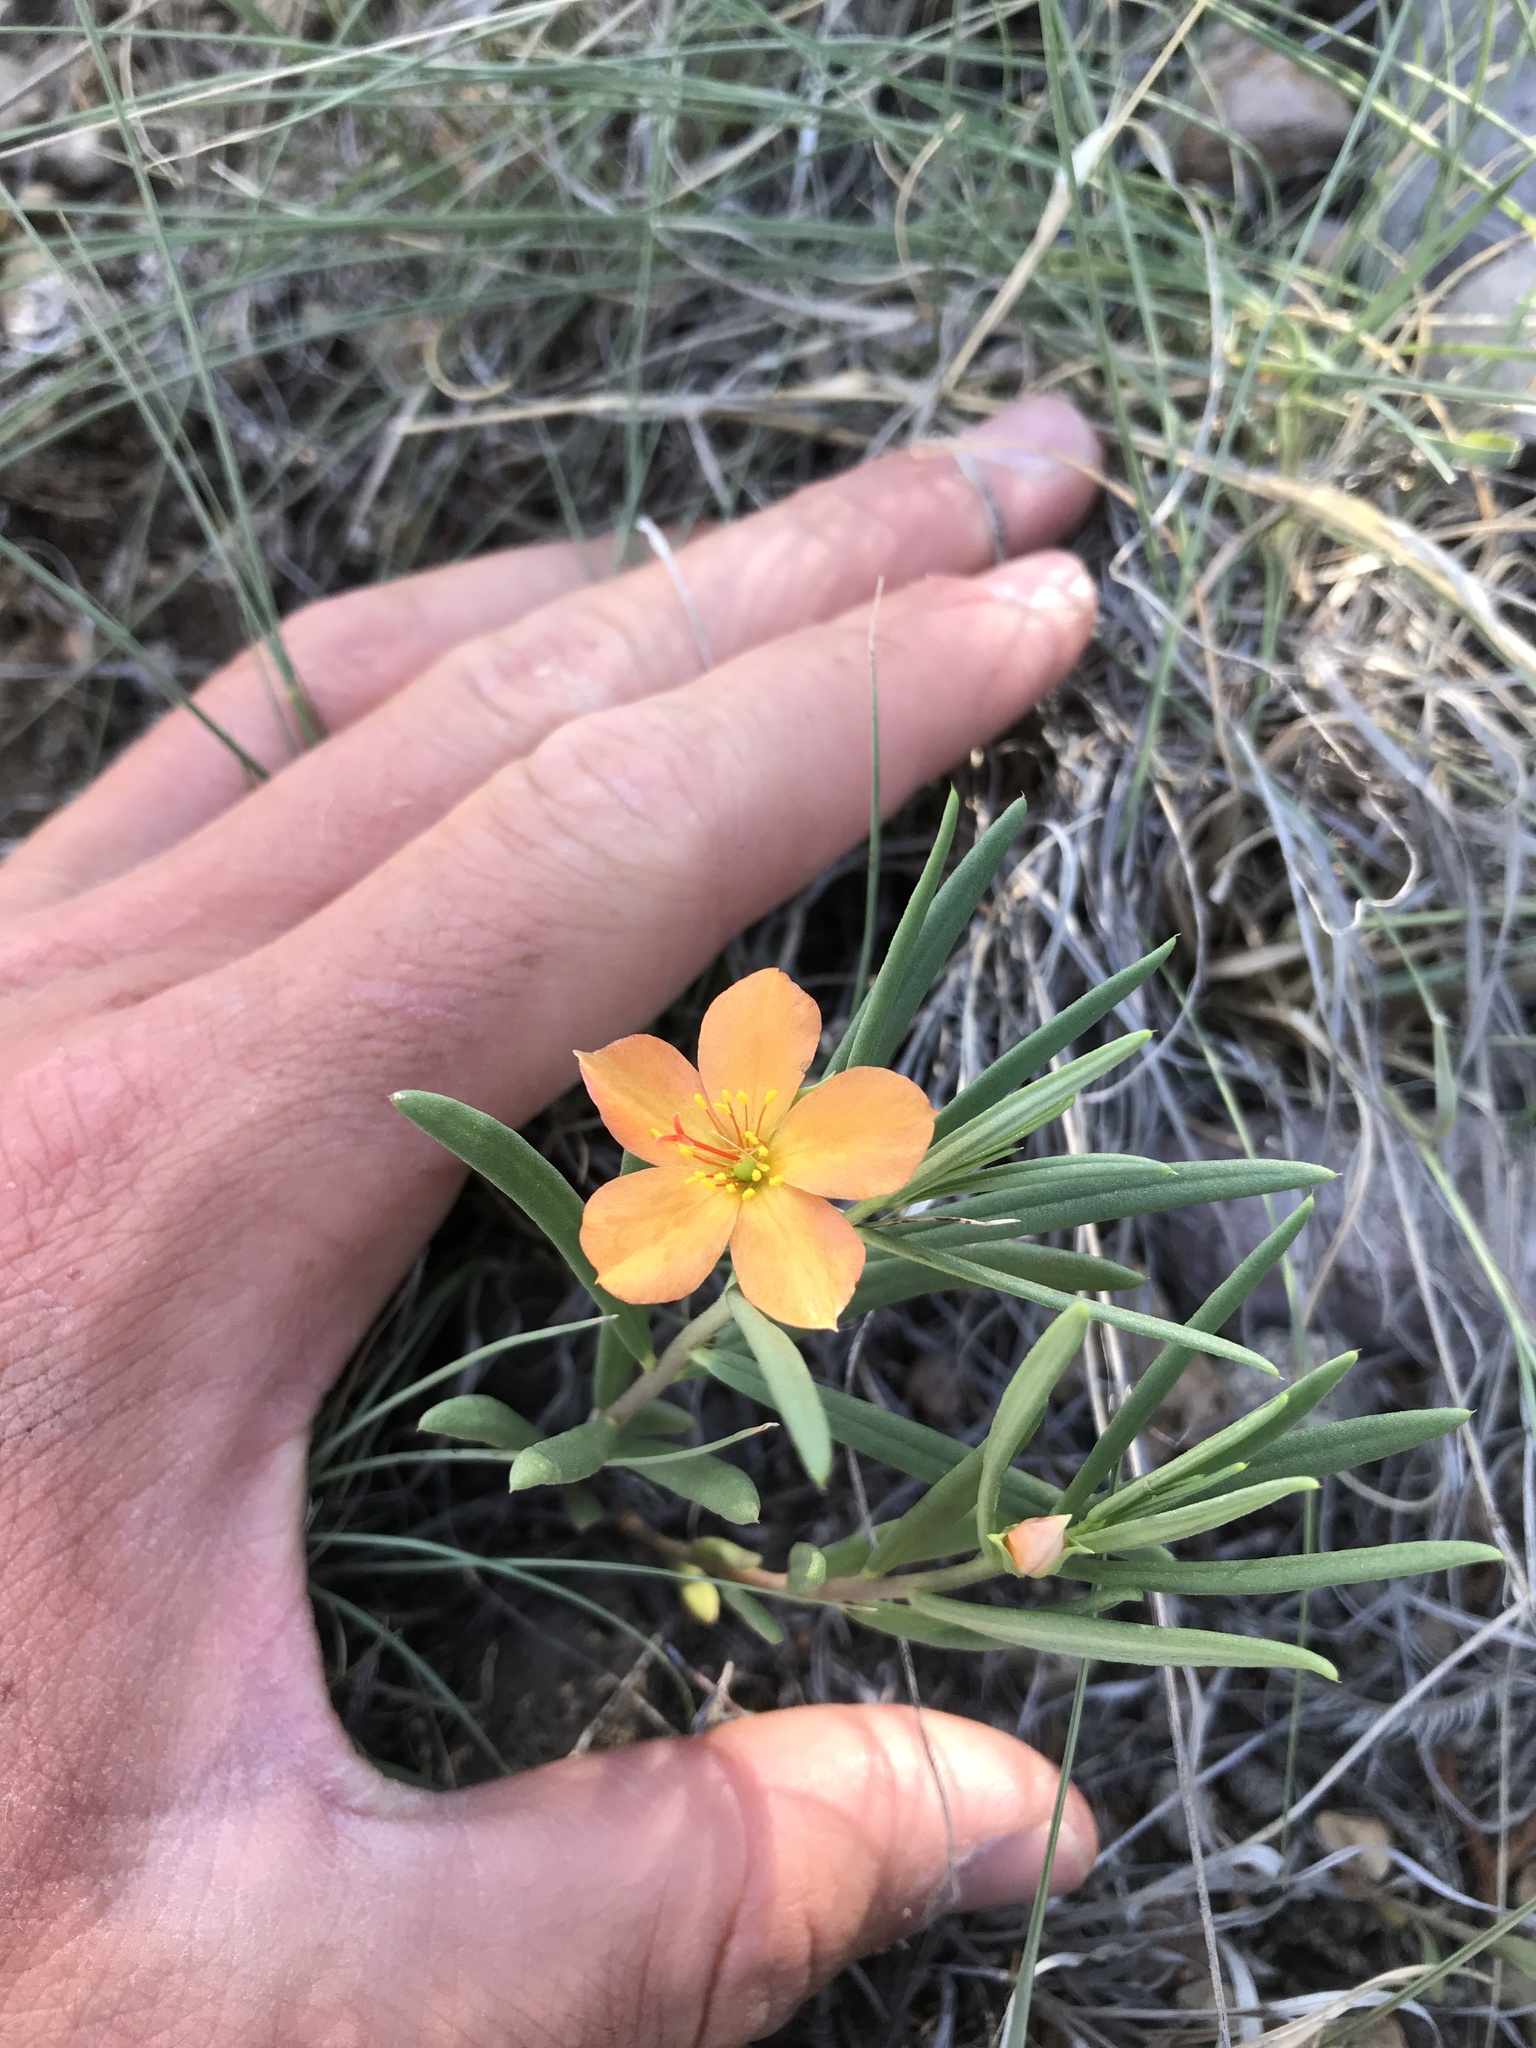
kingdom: Plantae
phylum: Tracheophyta
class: Magnoliopsida
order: Caryophyllales
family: Montiaceae
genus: Phemeranthus
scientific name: Phemeranthus aurantiacus
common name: Orange fameflower
